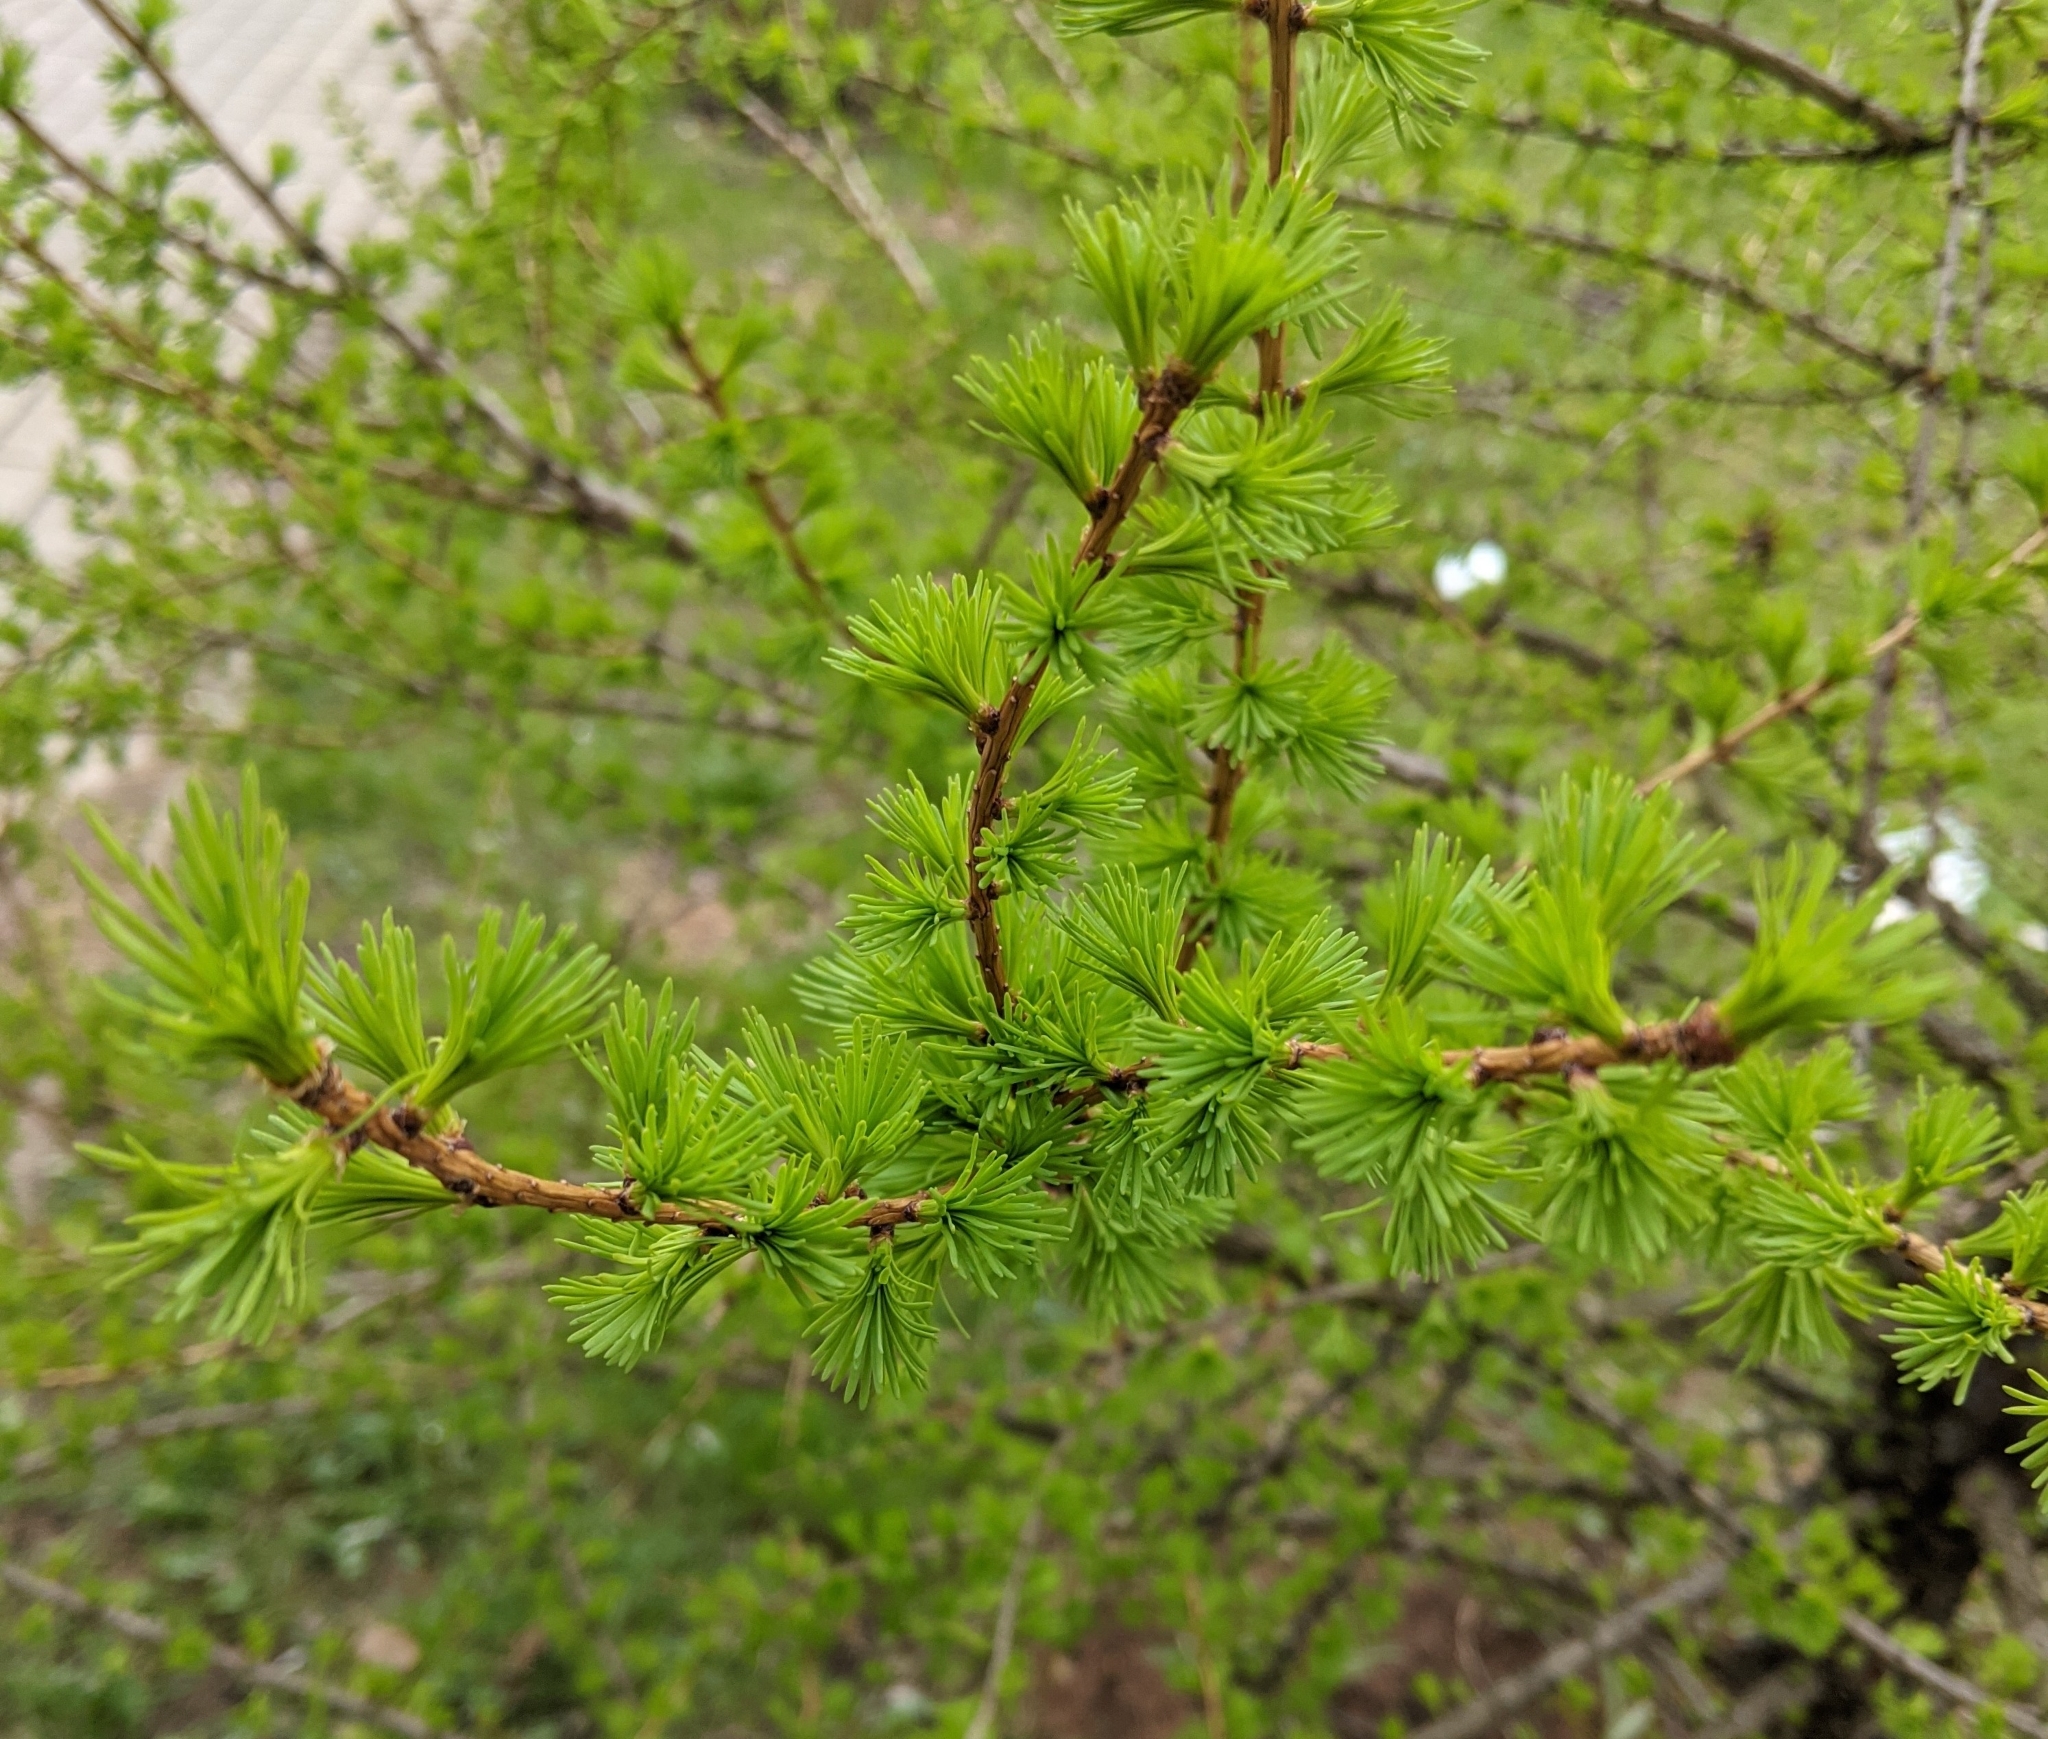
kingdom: Plantae
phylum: Tracheophyta
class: Pinopsida
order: Pinales
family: Pinaceae
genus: Larix
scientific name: Larix decidua
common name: European larch
